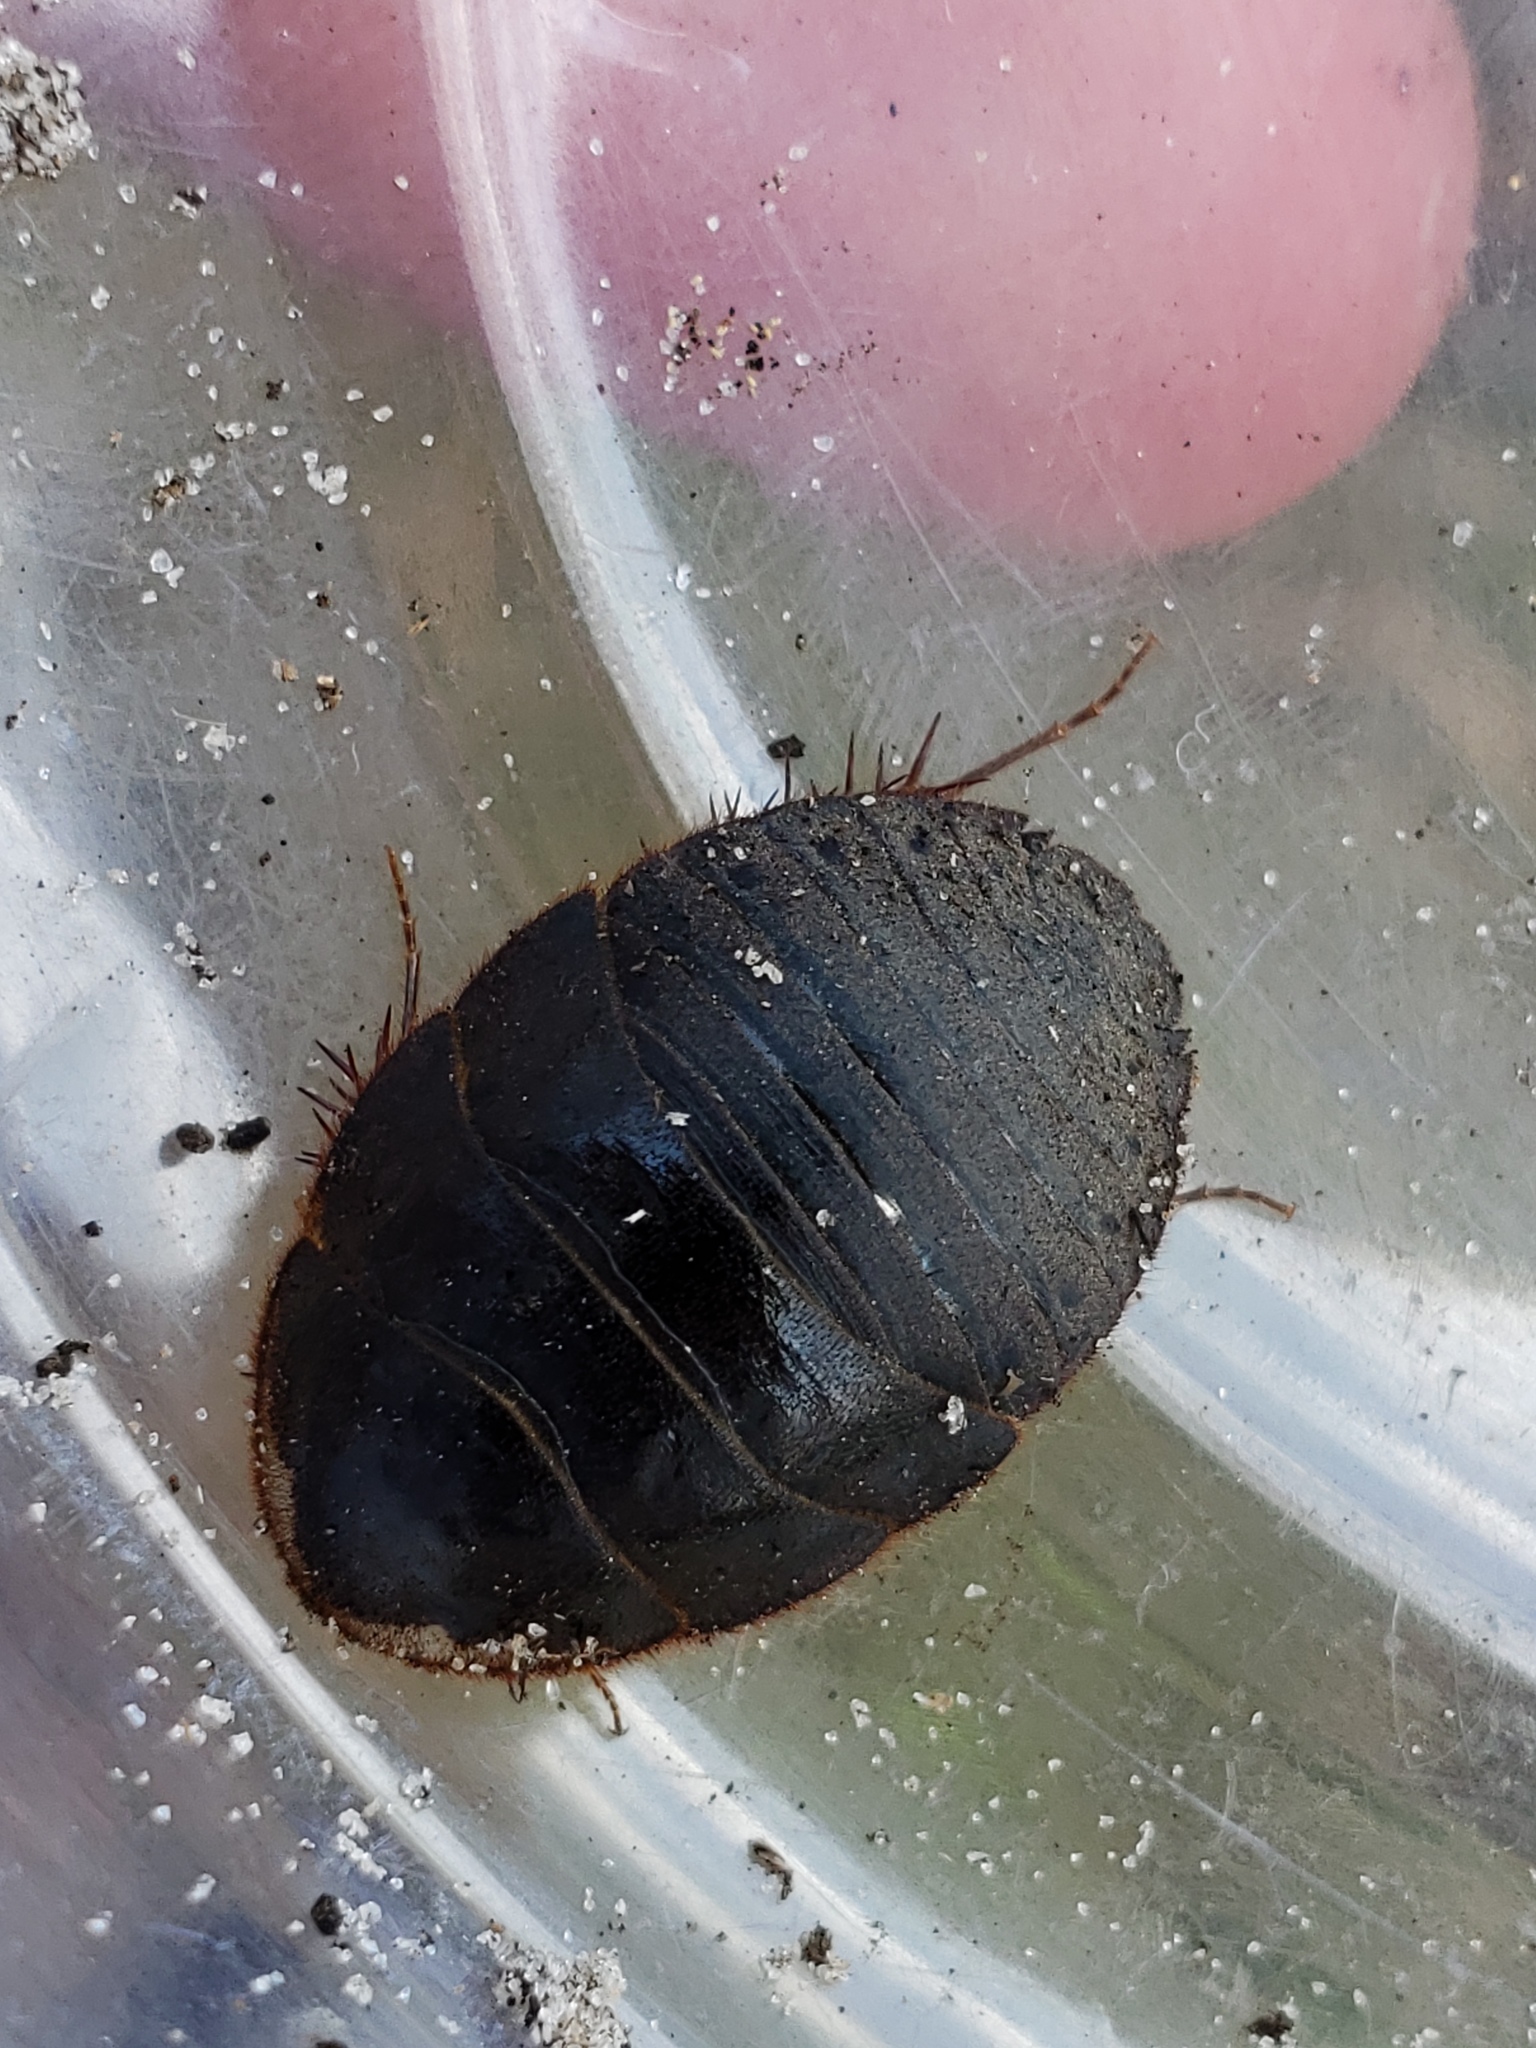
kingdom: Animalia
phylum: Arthropoda
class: Insecta
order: Blattodea
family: Corydiidae
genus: Arenivaga
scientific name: Arenivaga floridensis
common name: Florida sand cockroach
